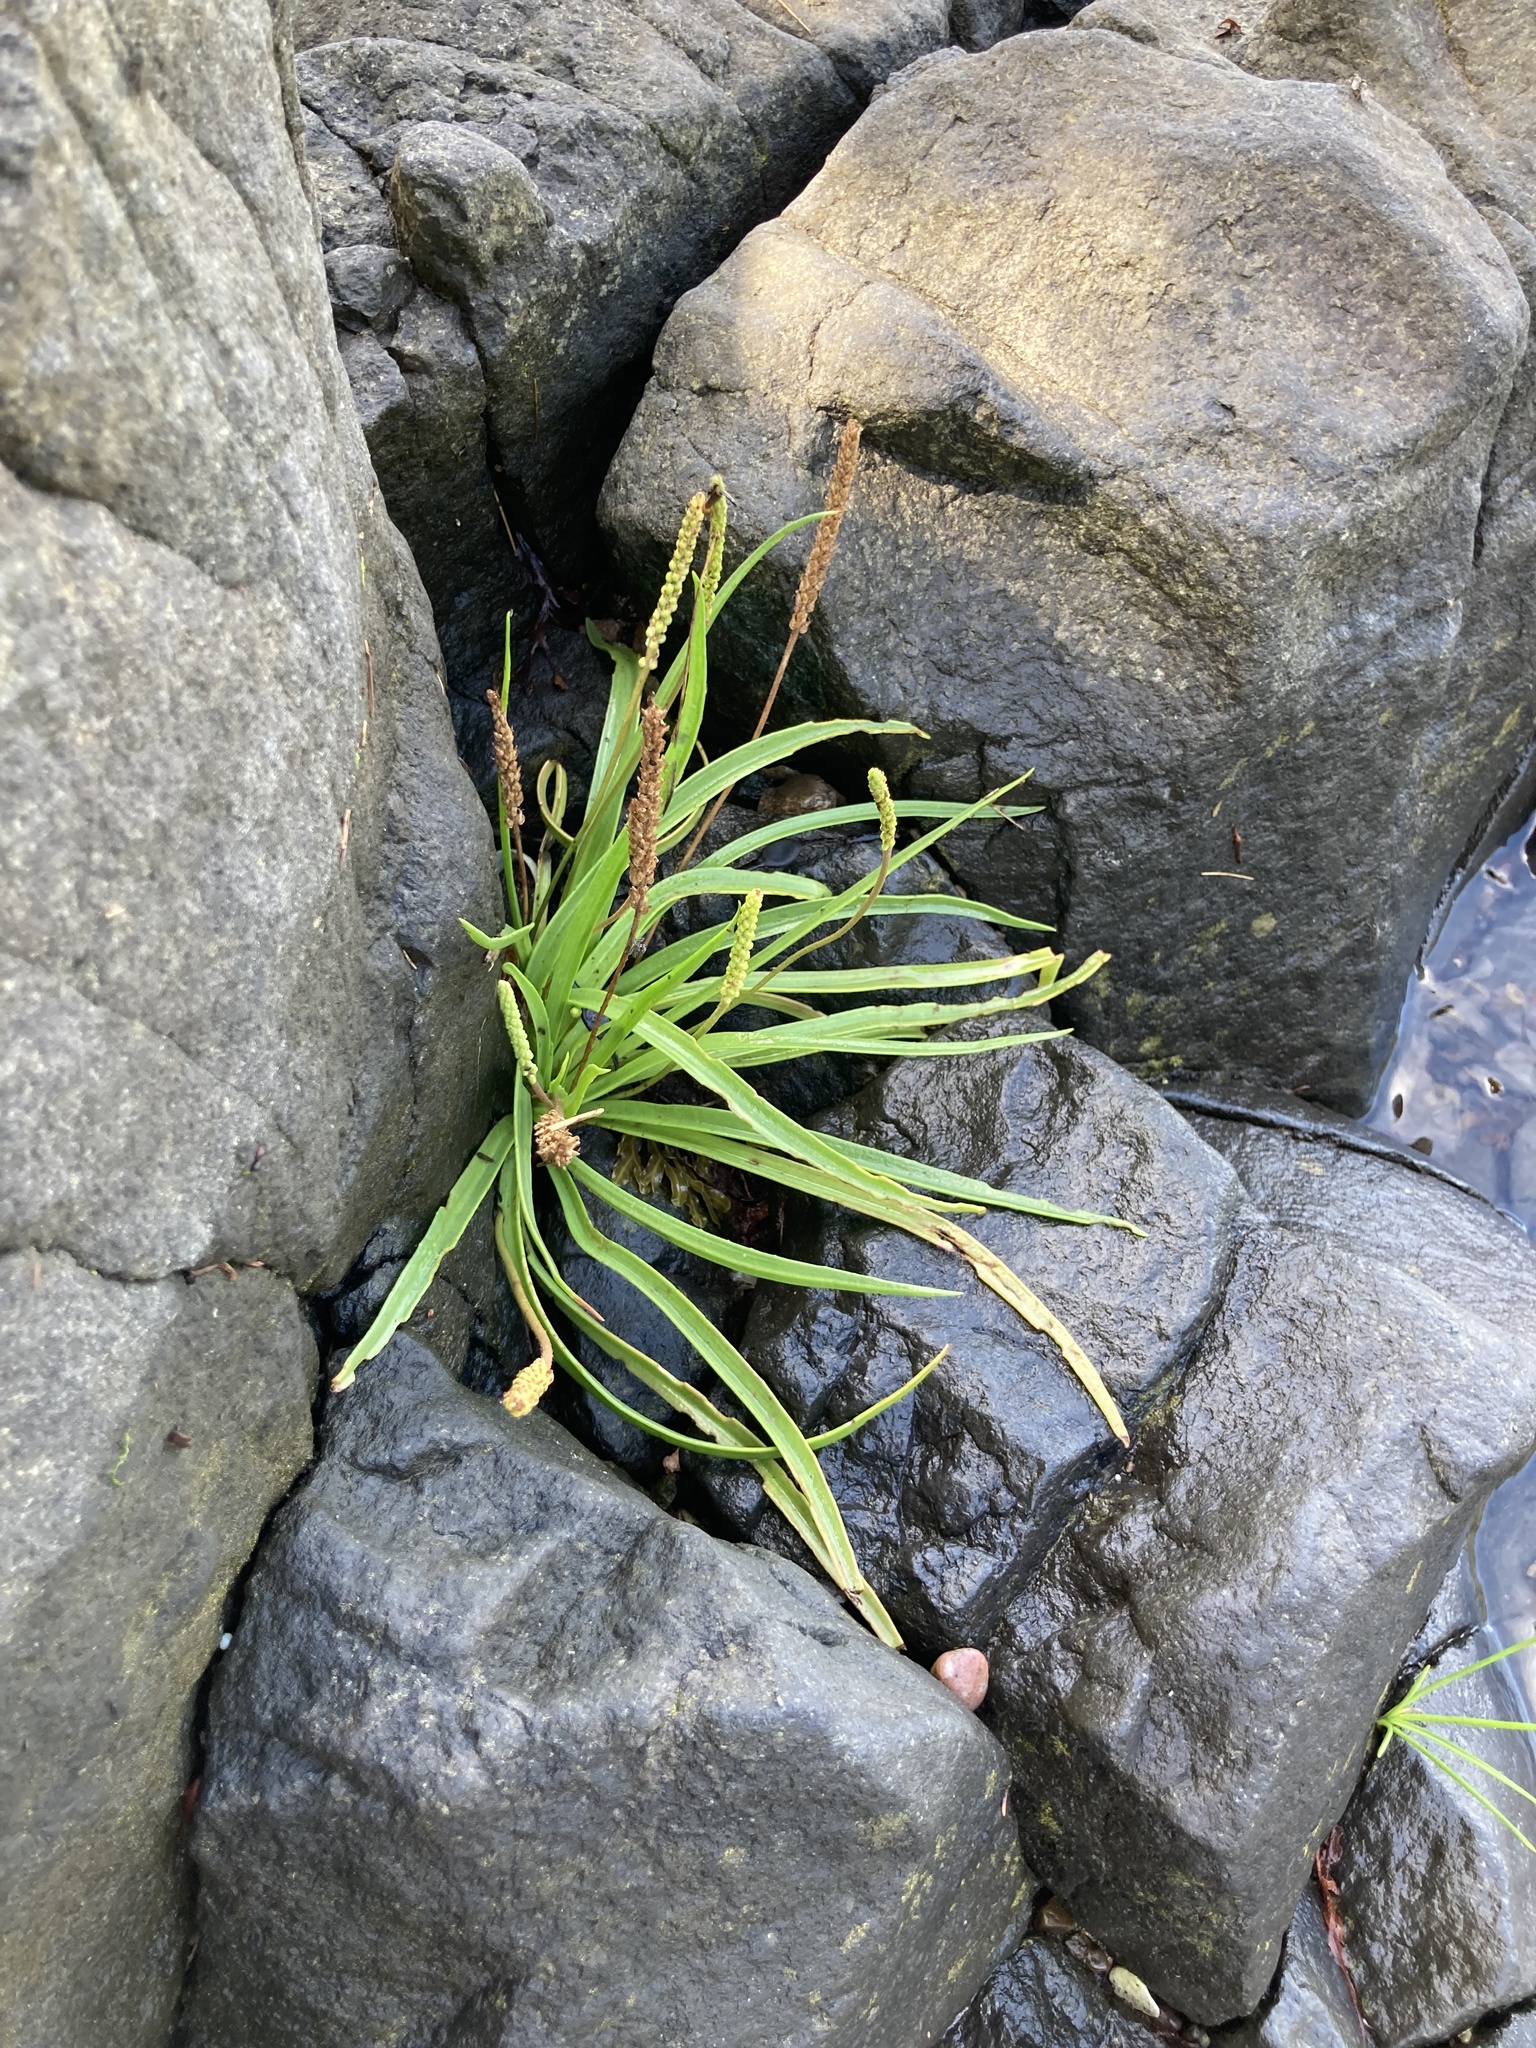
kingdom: Plantae
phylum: Tracheophyta
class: Magnoliopsida
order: Lamiales
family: Plantaginaceae
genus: Plantago
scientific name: Plantago maritima
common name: Sea plantain
